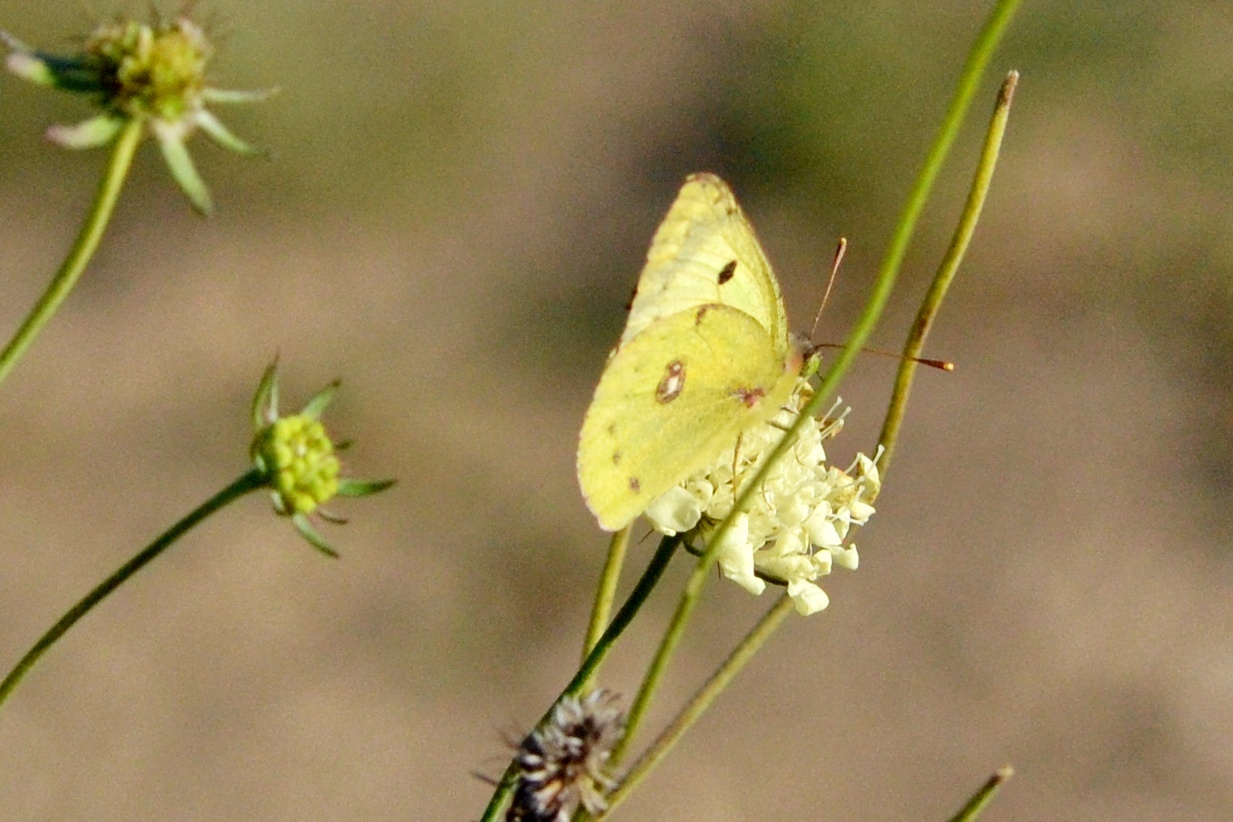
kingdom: Animalia
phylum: Arthropoda
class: Insecta
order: Lepidoptera
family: Pieridae
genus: Colias
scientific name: Colias alfacariensis
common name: Berger's clouded yellow
